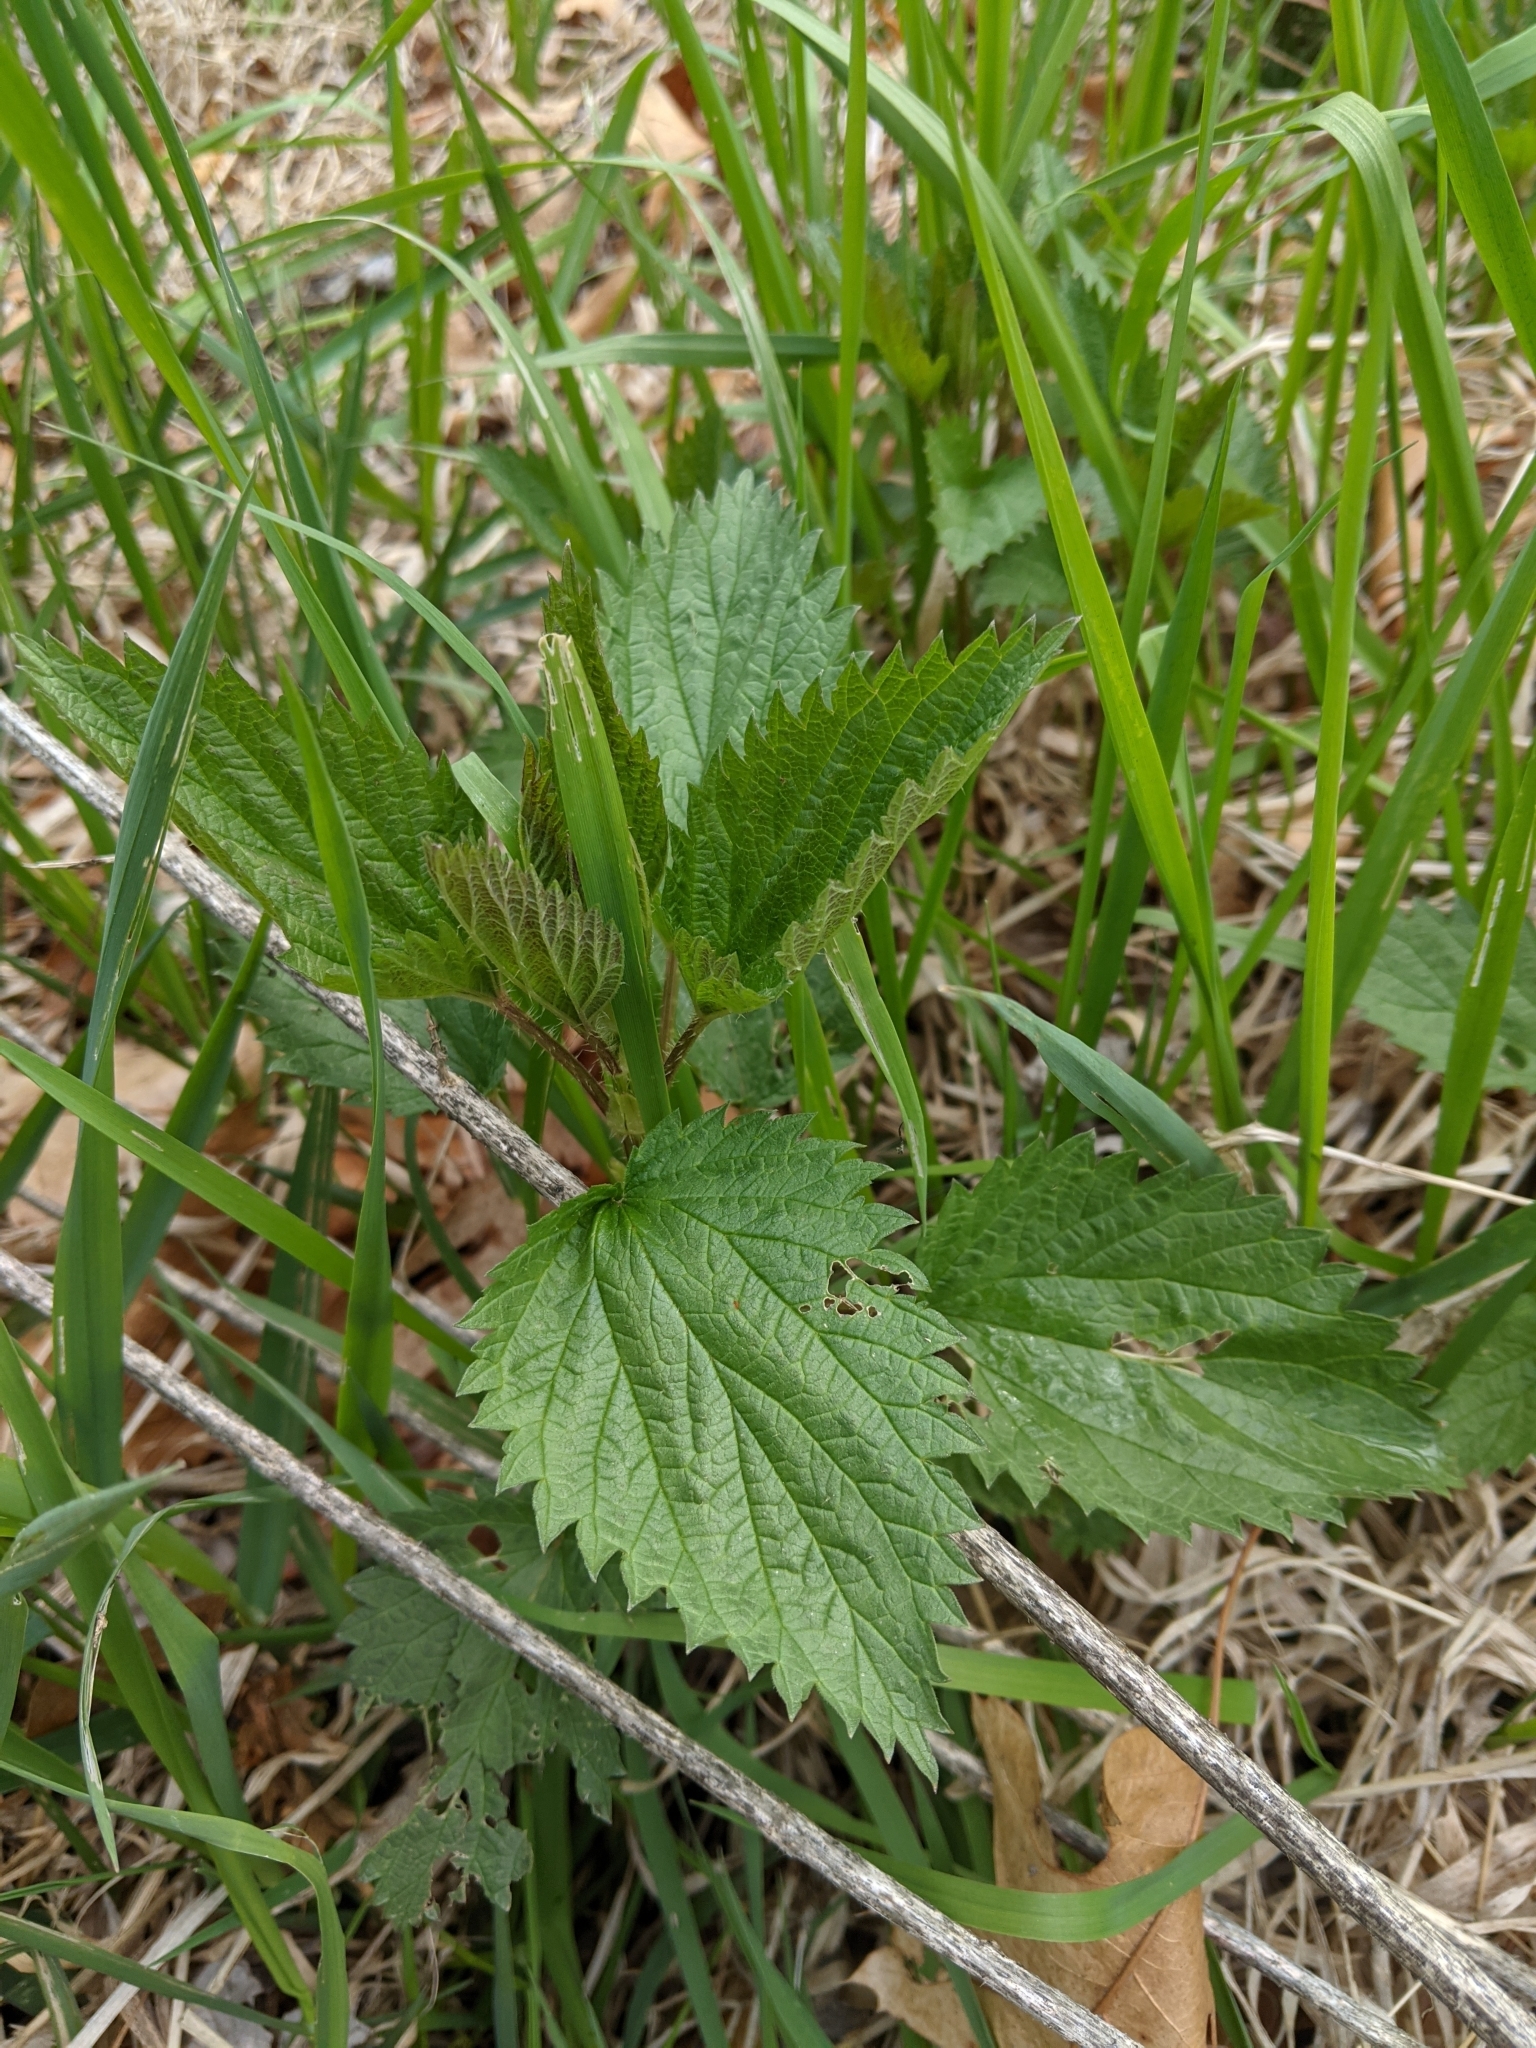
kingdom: Plantae
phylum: Tracheophyta
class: Magnoliopsida
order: Rosales
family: Urticaceae
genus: Urtica
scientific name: Urtica dioica
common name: Common nettle
